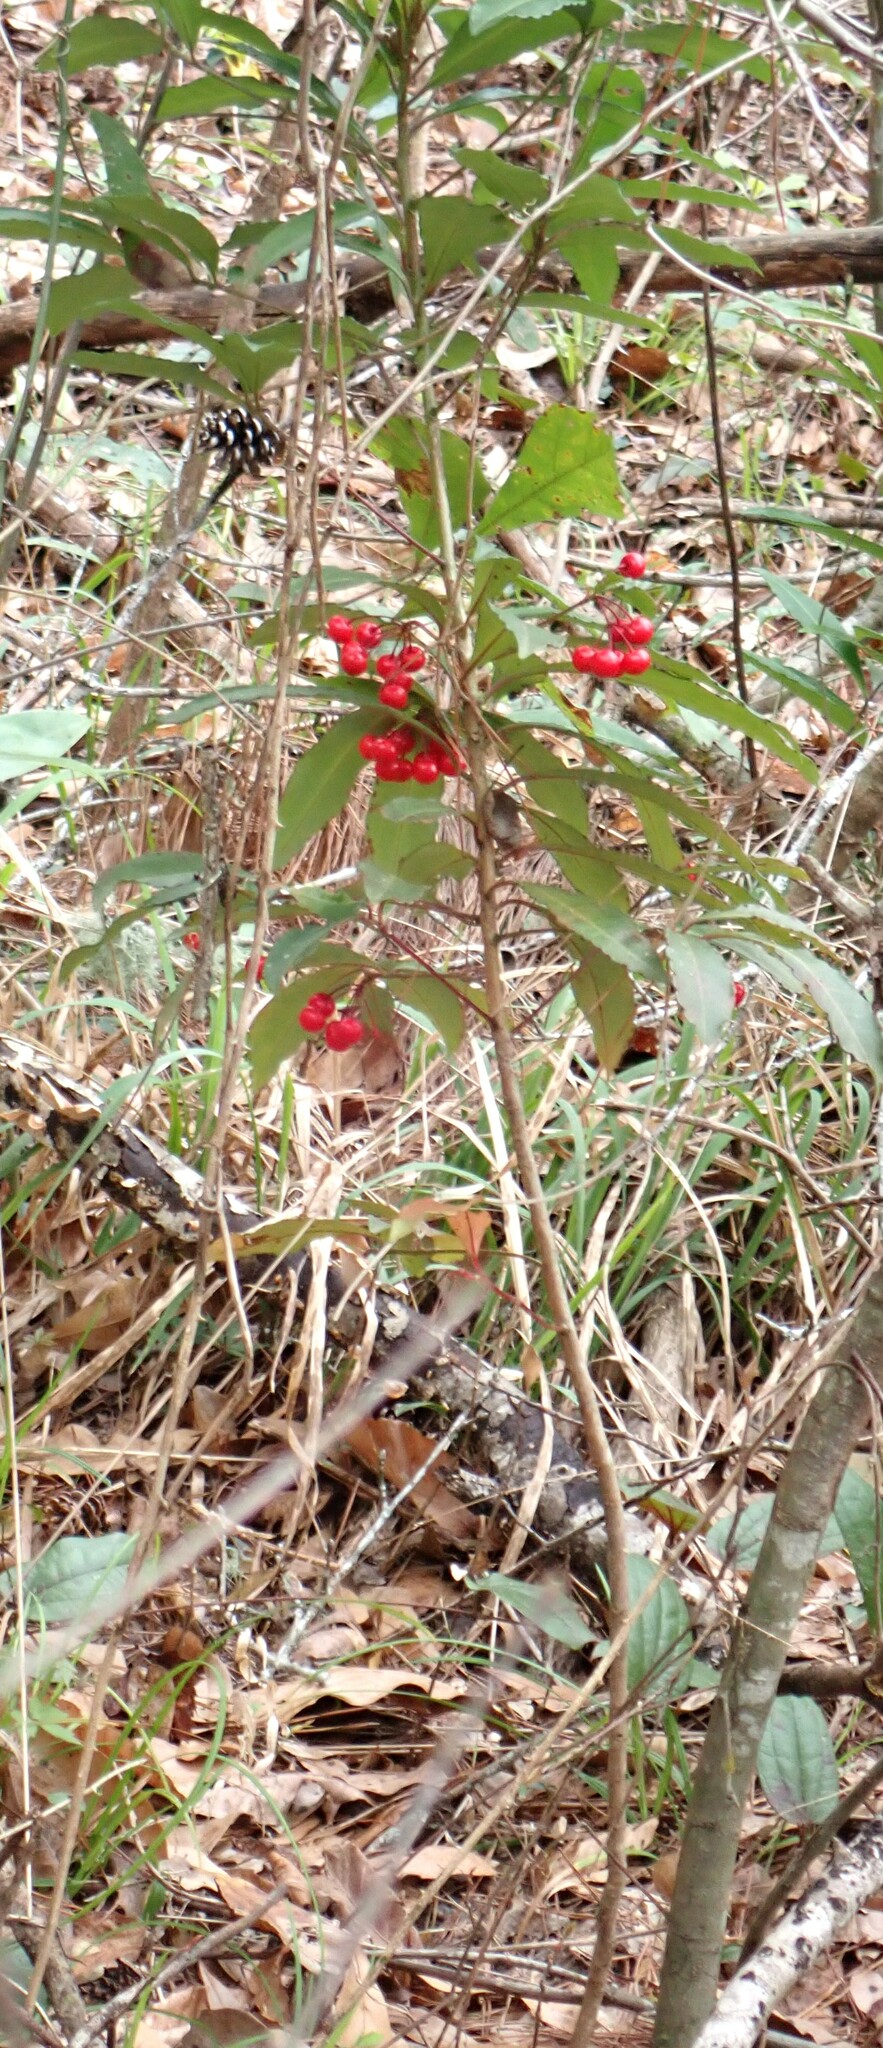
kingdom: Plantae
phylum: Tracheophyta
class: Magnoliopsida
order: Ericales
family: Primulaceae
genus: Ardisia
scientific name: Ardisia crenata
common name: Hen's eyes
